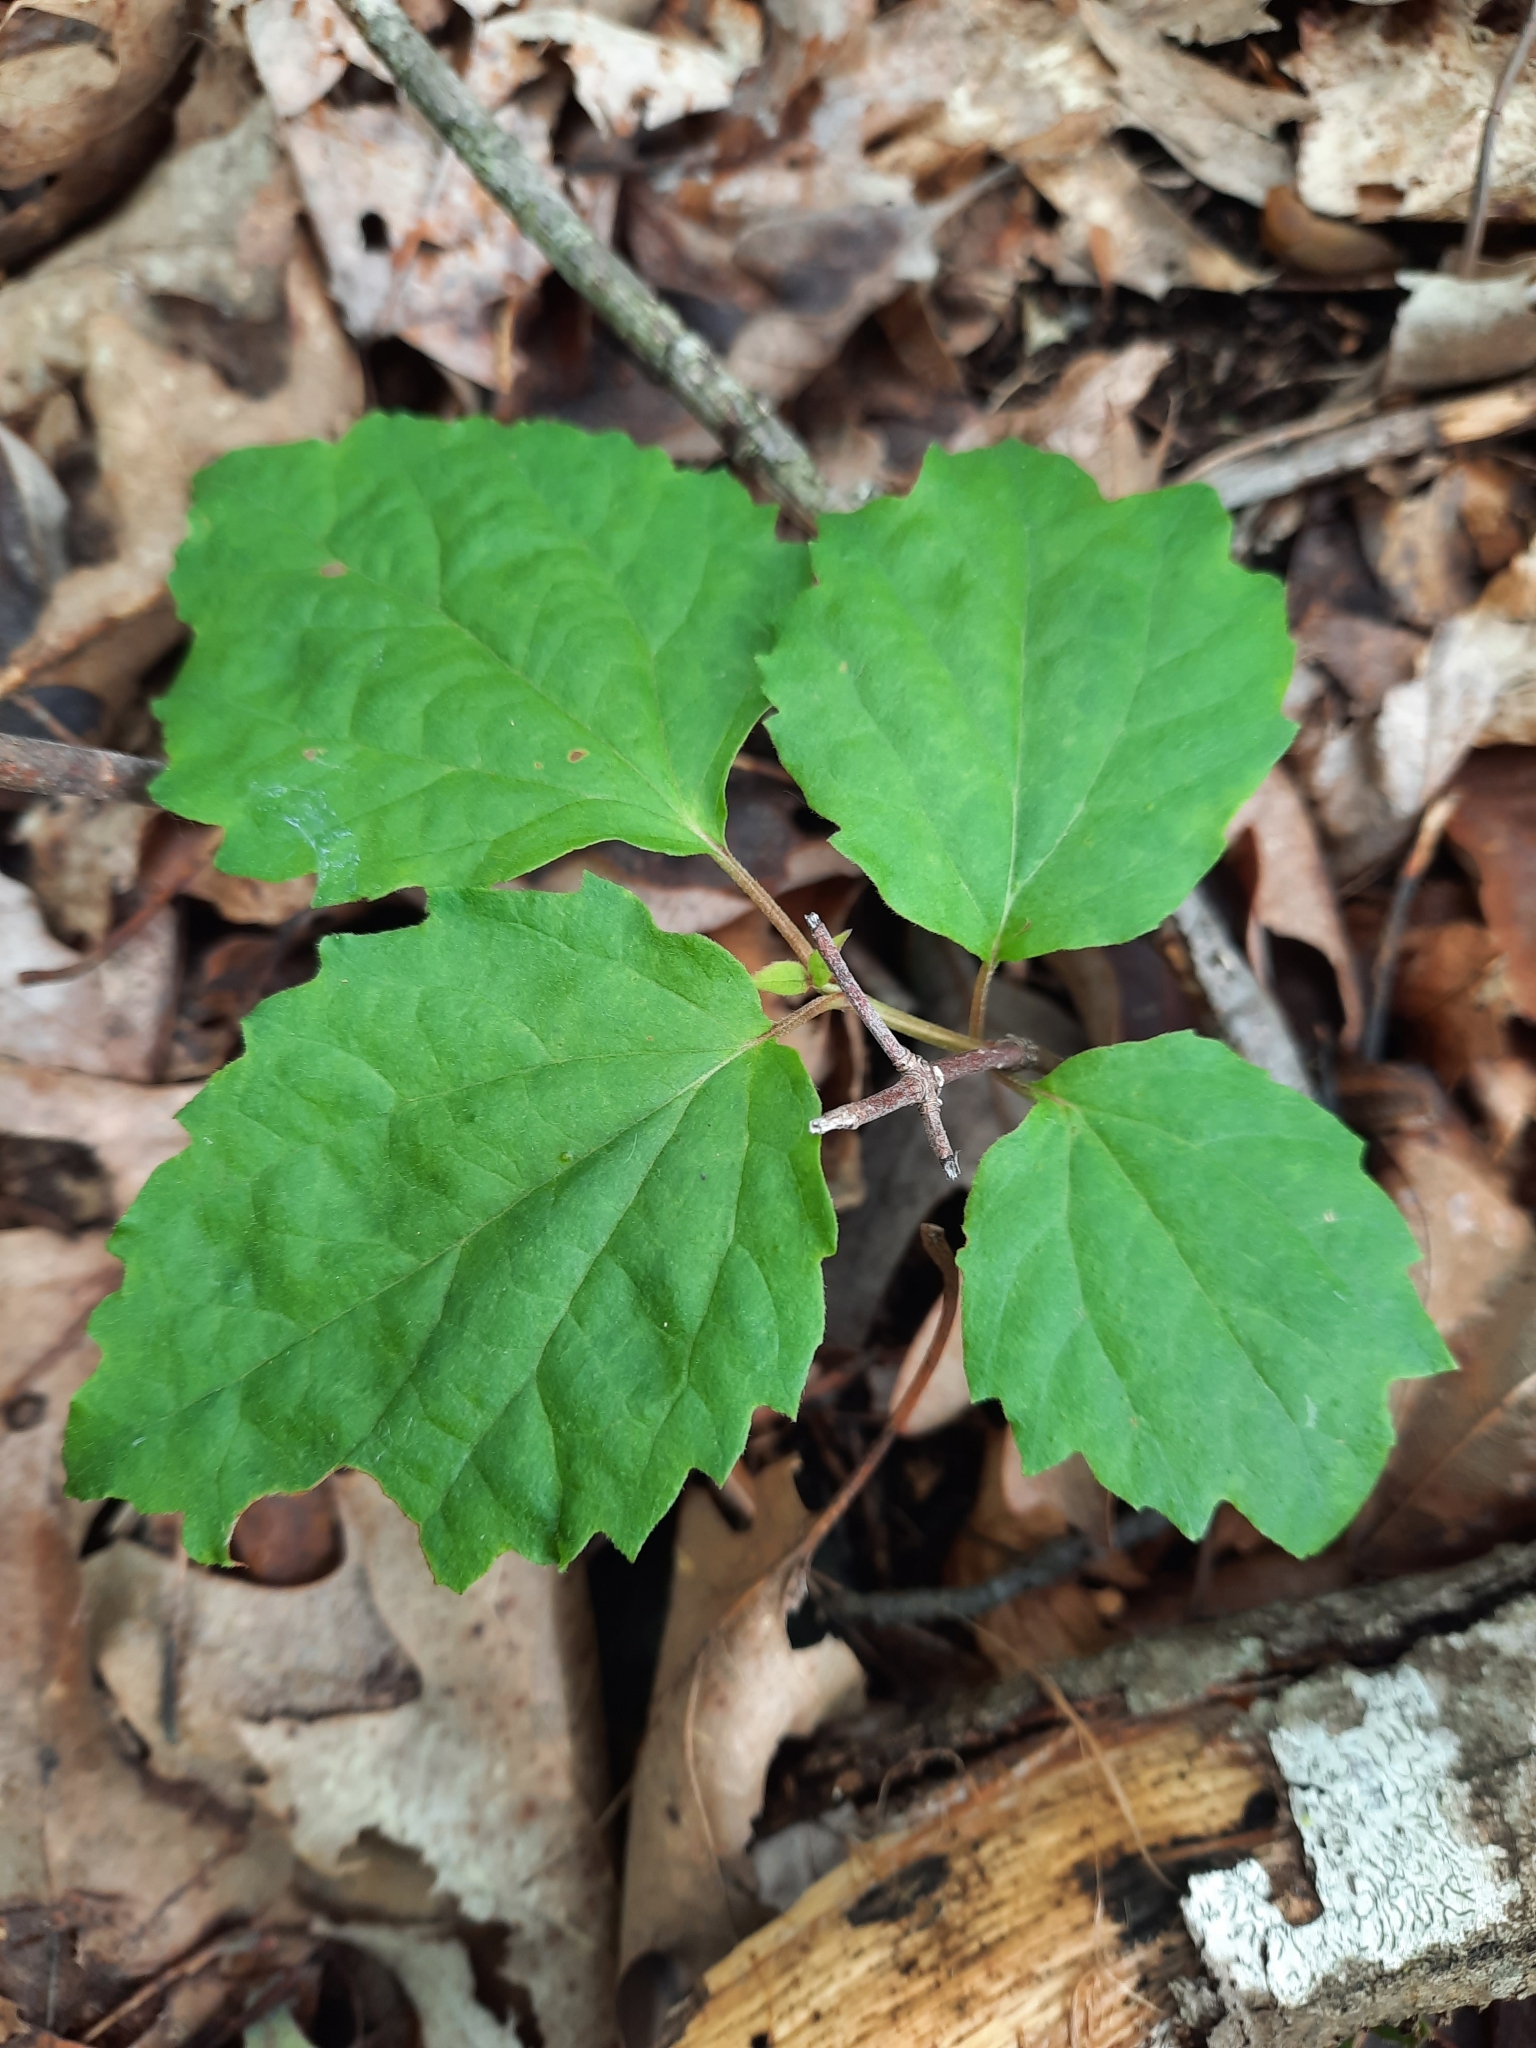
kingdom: Plantae
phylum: Tracheophyta
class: Magnoliopsida
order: Dipsacales
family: Viburnaceae
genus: Viburnum
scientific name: Viburnum acerifolium
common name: Dockmackie
